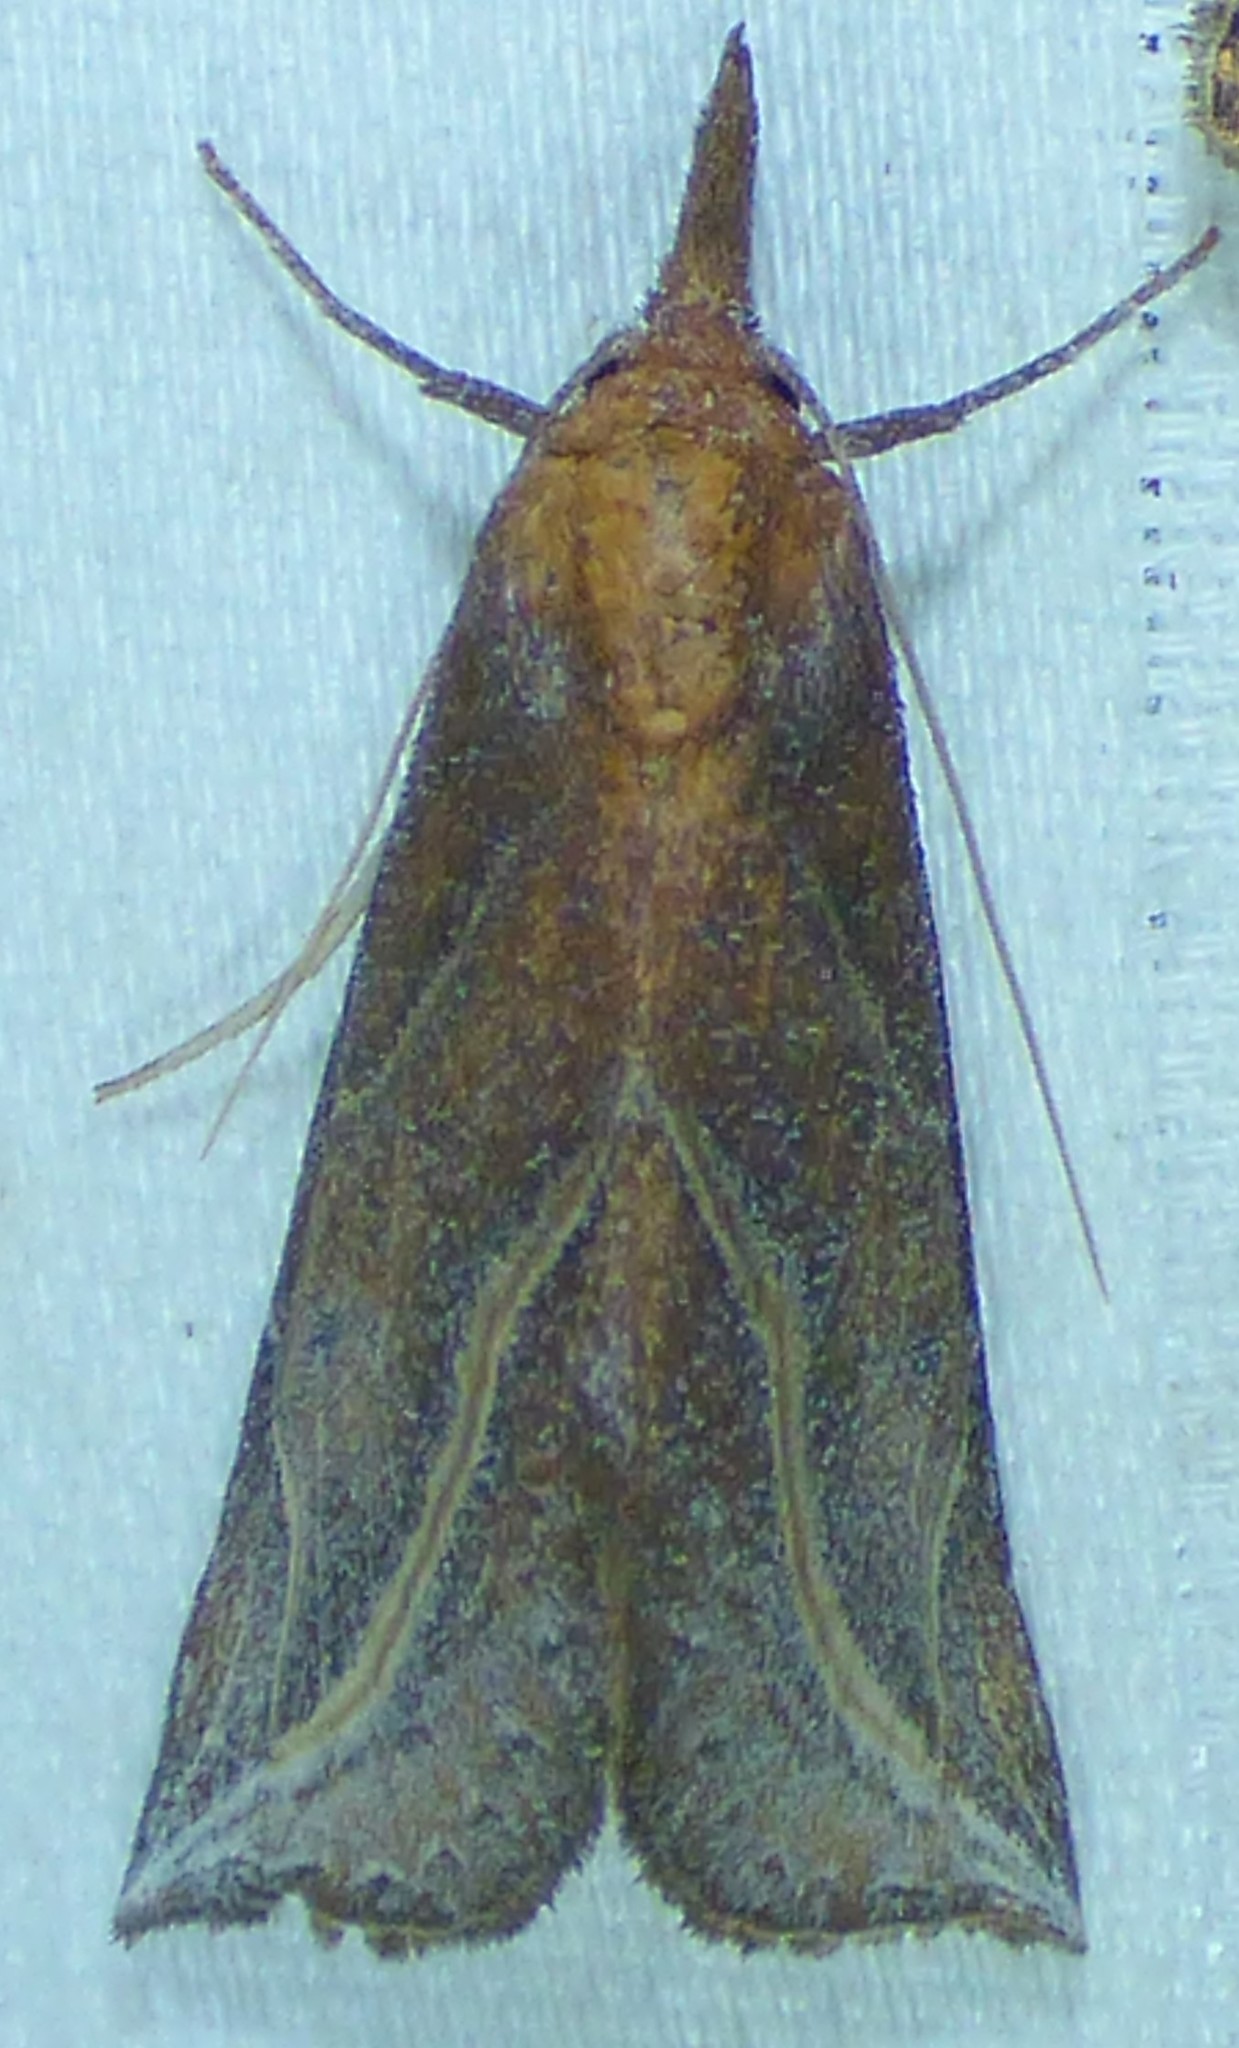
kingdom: Animalia
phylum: Arthropoda
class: Insecta
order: Lepidoptera
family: Erebidae
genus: Phyprosopus
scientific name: Phyprosopus callitrichoides
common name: Curved-lined owlet
